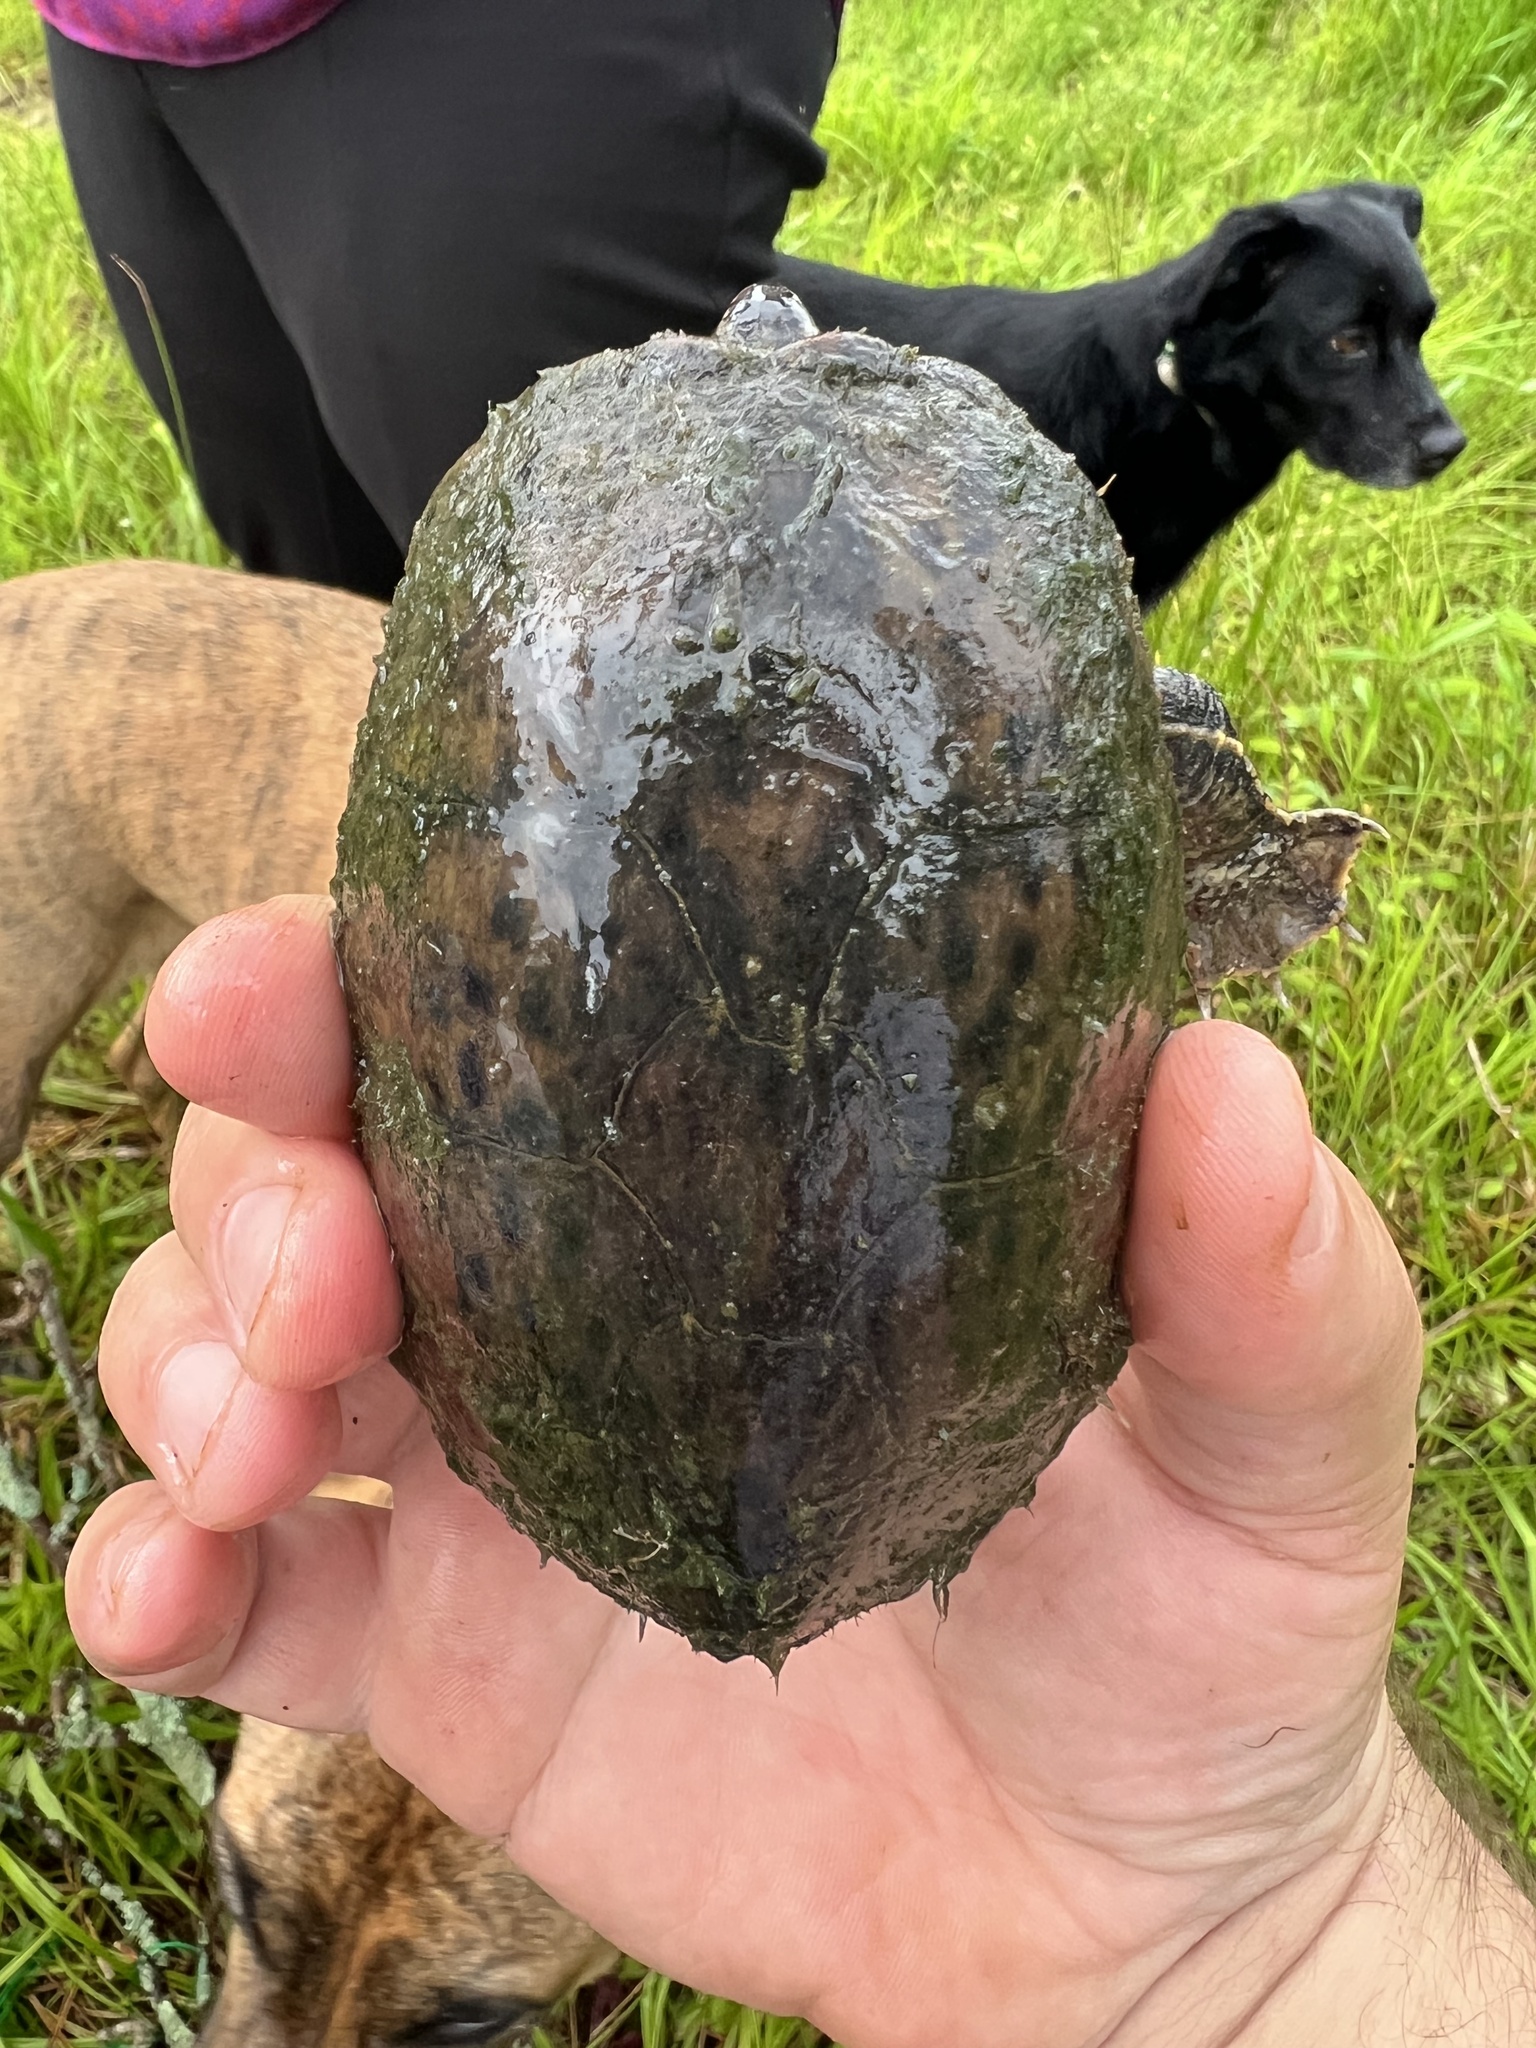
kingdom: Animalia
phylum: Chordata
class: Testudines
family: Kinosternidae
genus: Sternotherus
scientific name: Sternotherus odoratus
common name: Common musk turtle
